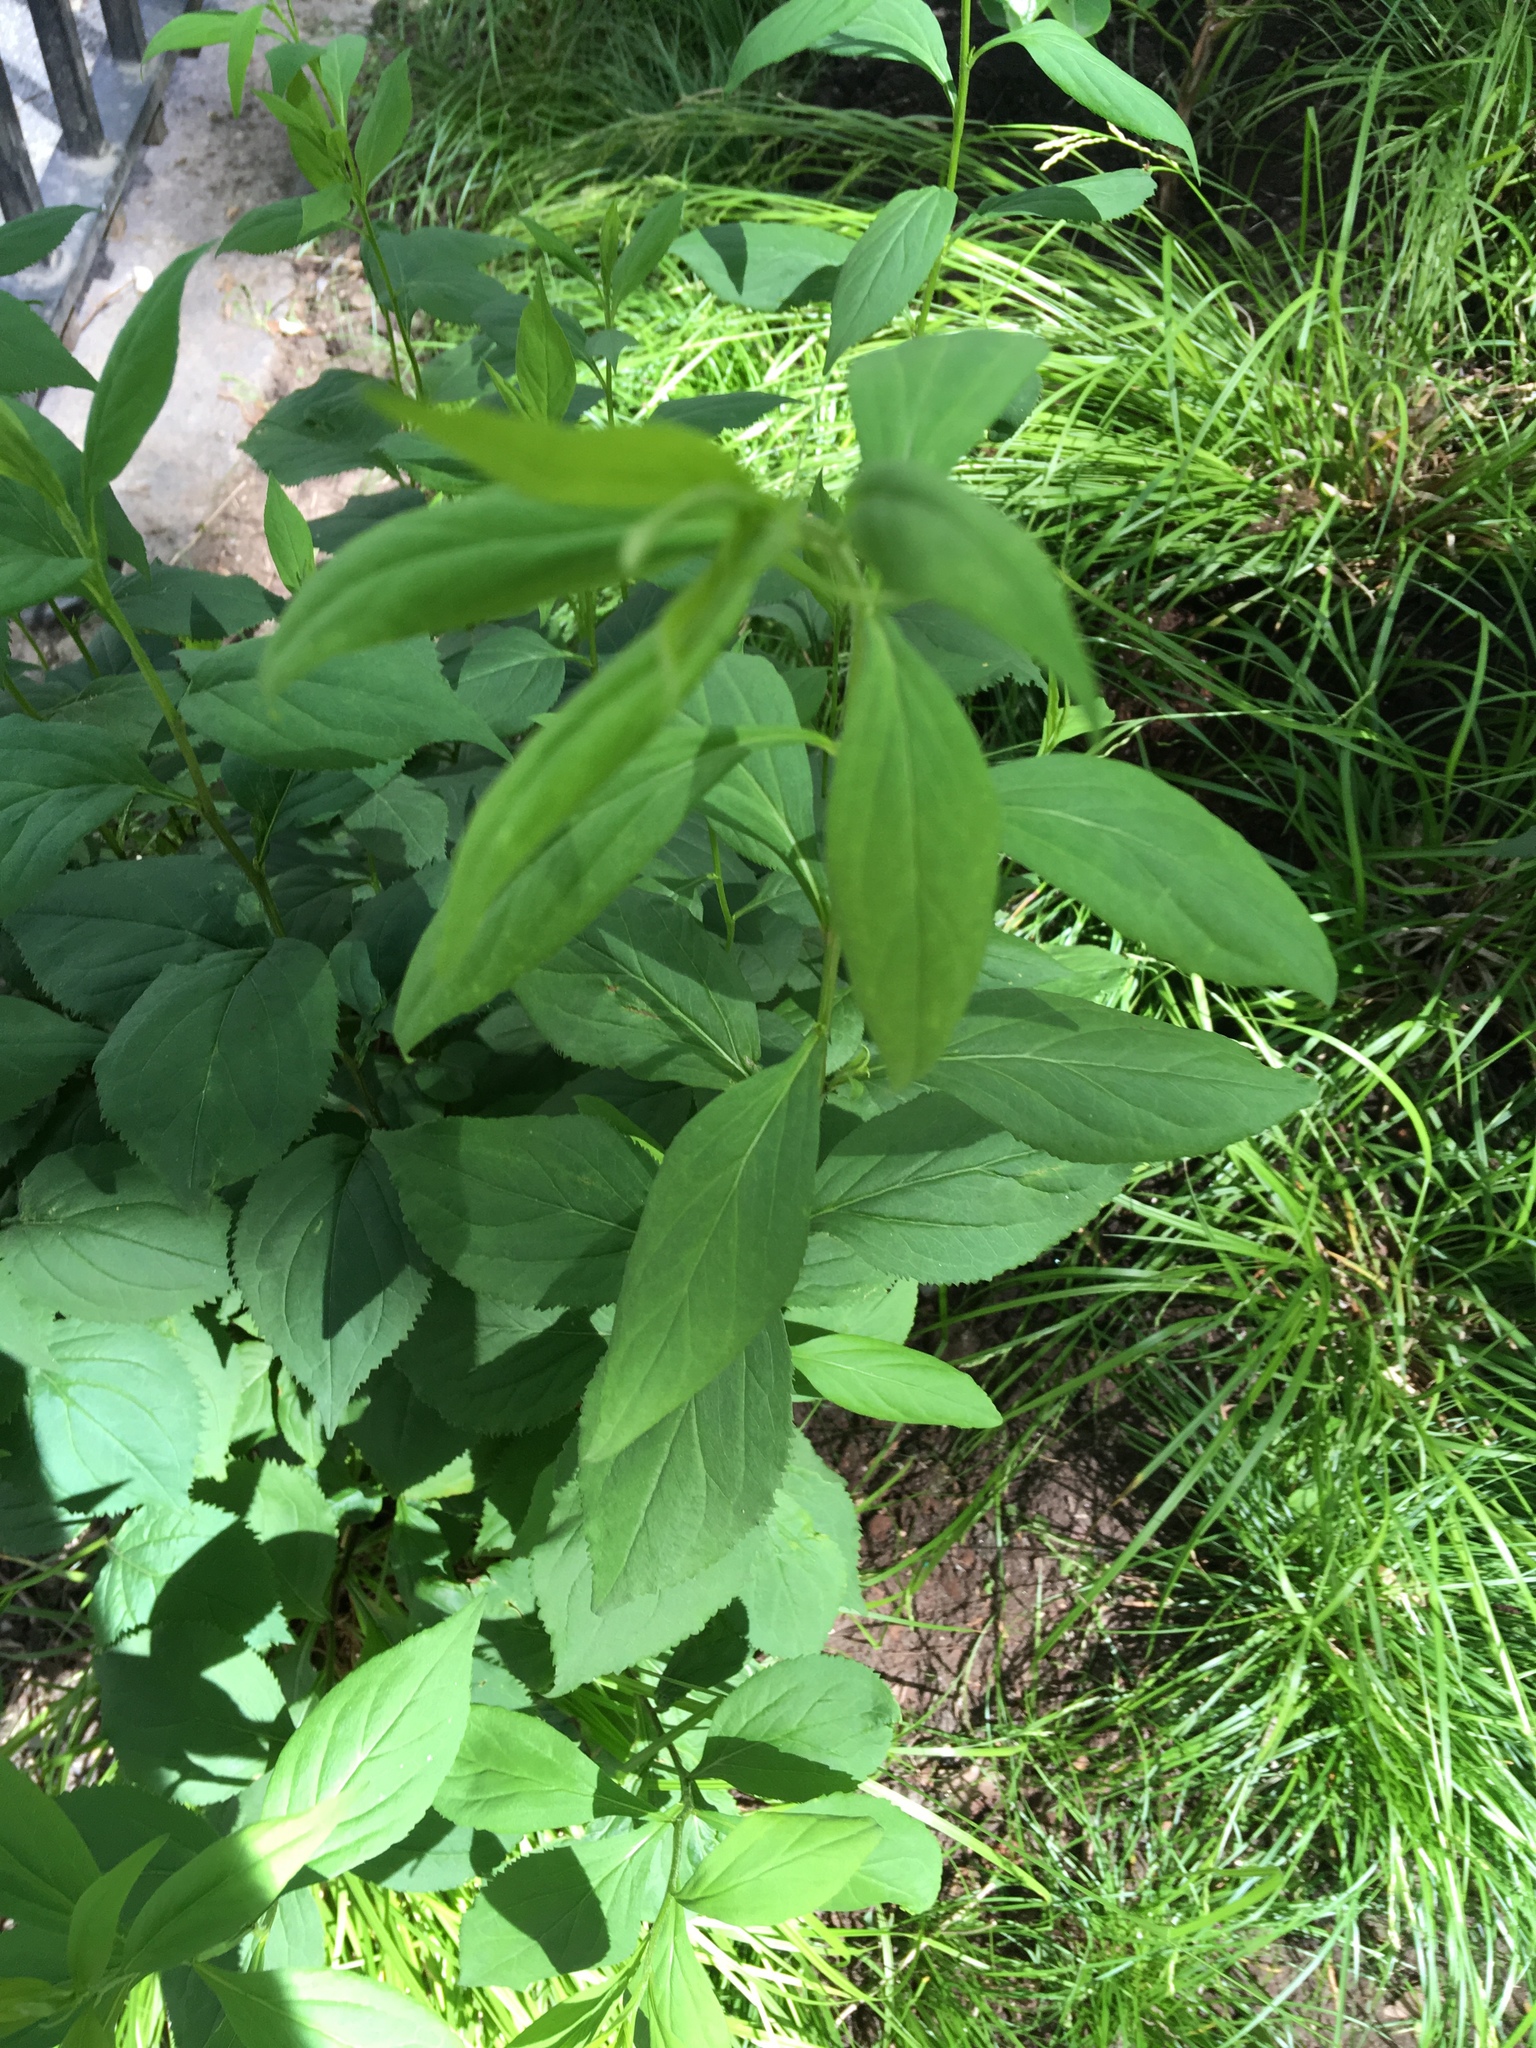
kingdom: Animalia
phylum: Arthropoda
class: Insecta
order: Diptera
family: Agromyzidae
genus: Liriomyza
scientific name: Liriomyza eupatorii
